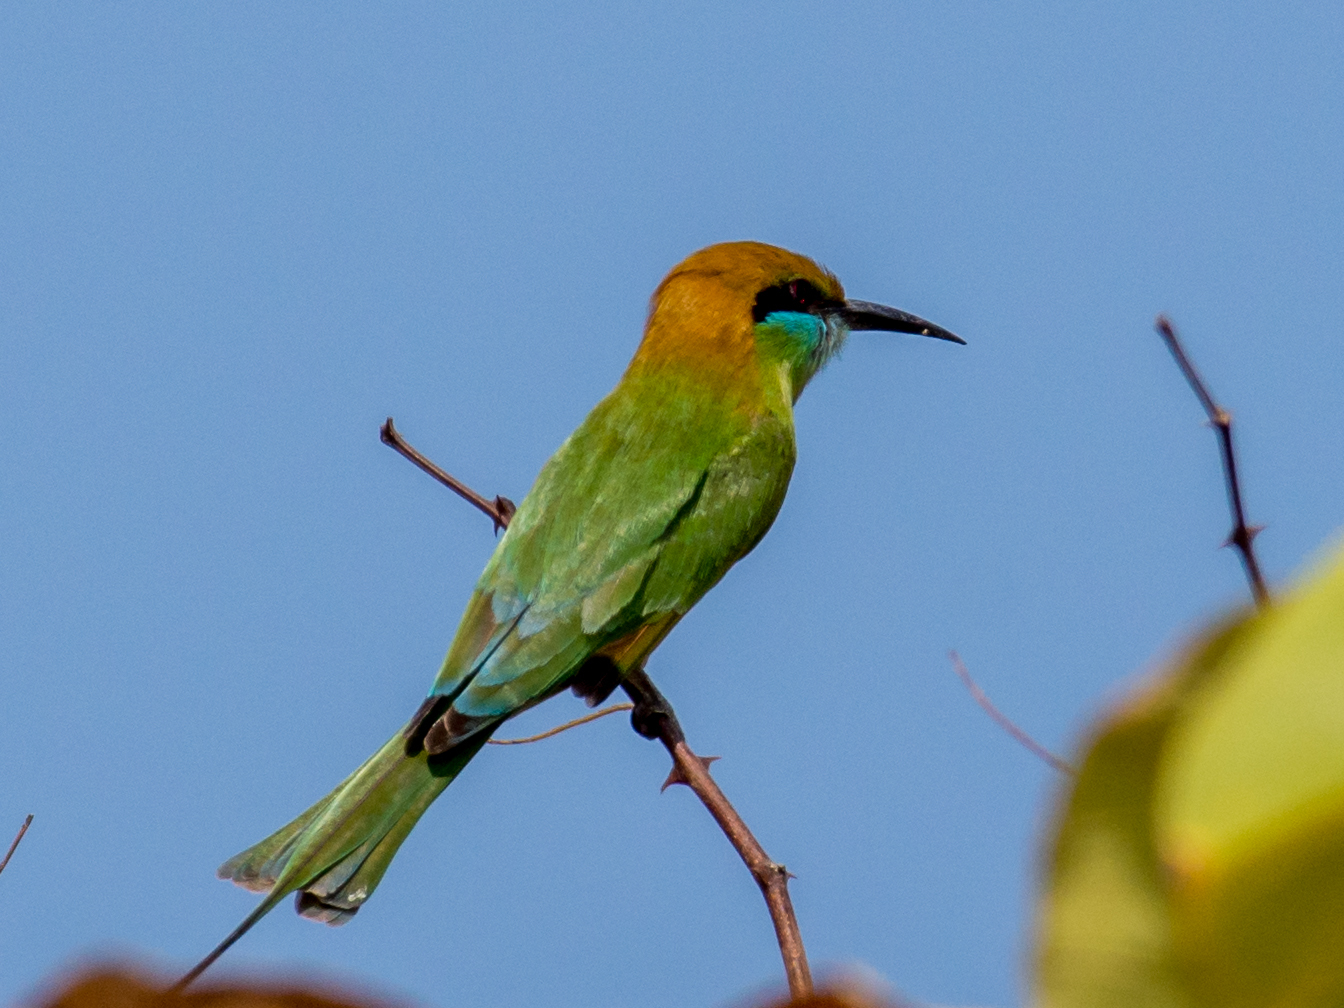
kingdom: Animalia
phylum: Chordata
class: Aves
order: Coraciiformes
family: Meropidae
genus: Merops
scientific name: Merops orientalis
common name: Green bee-eater
